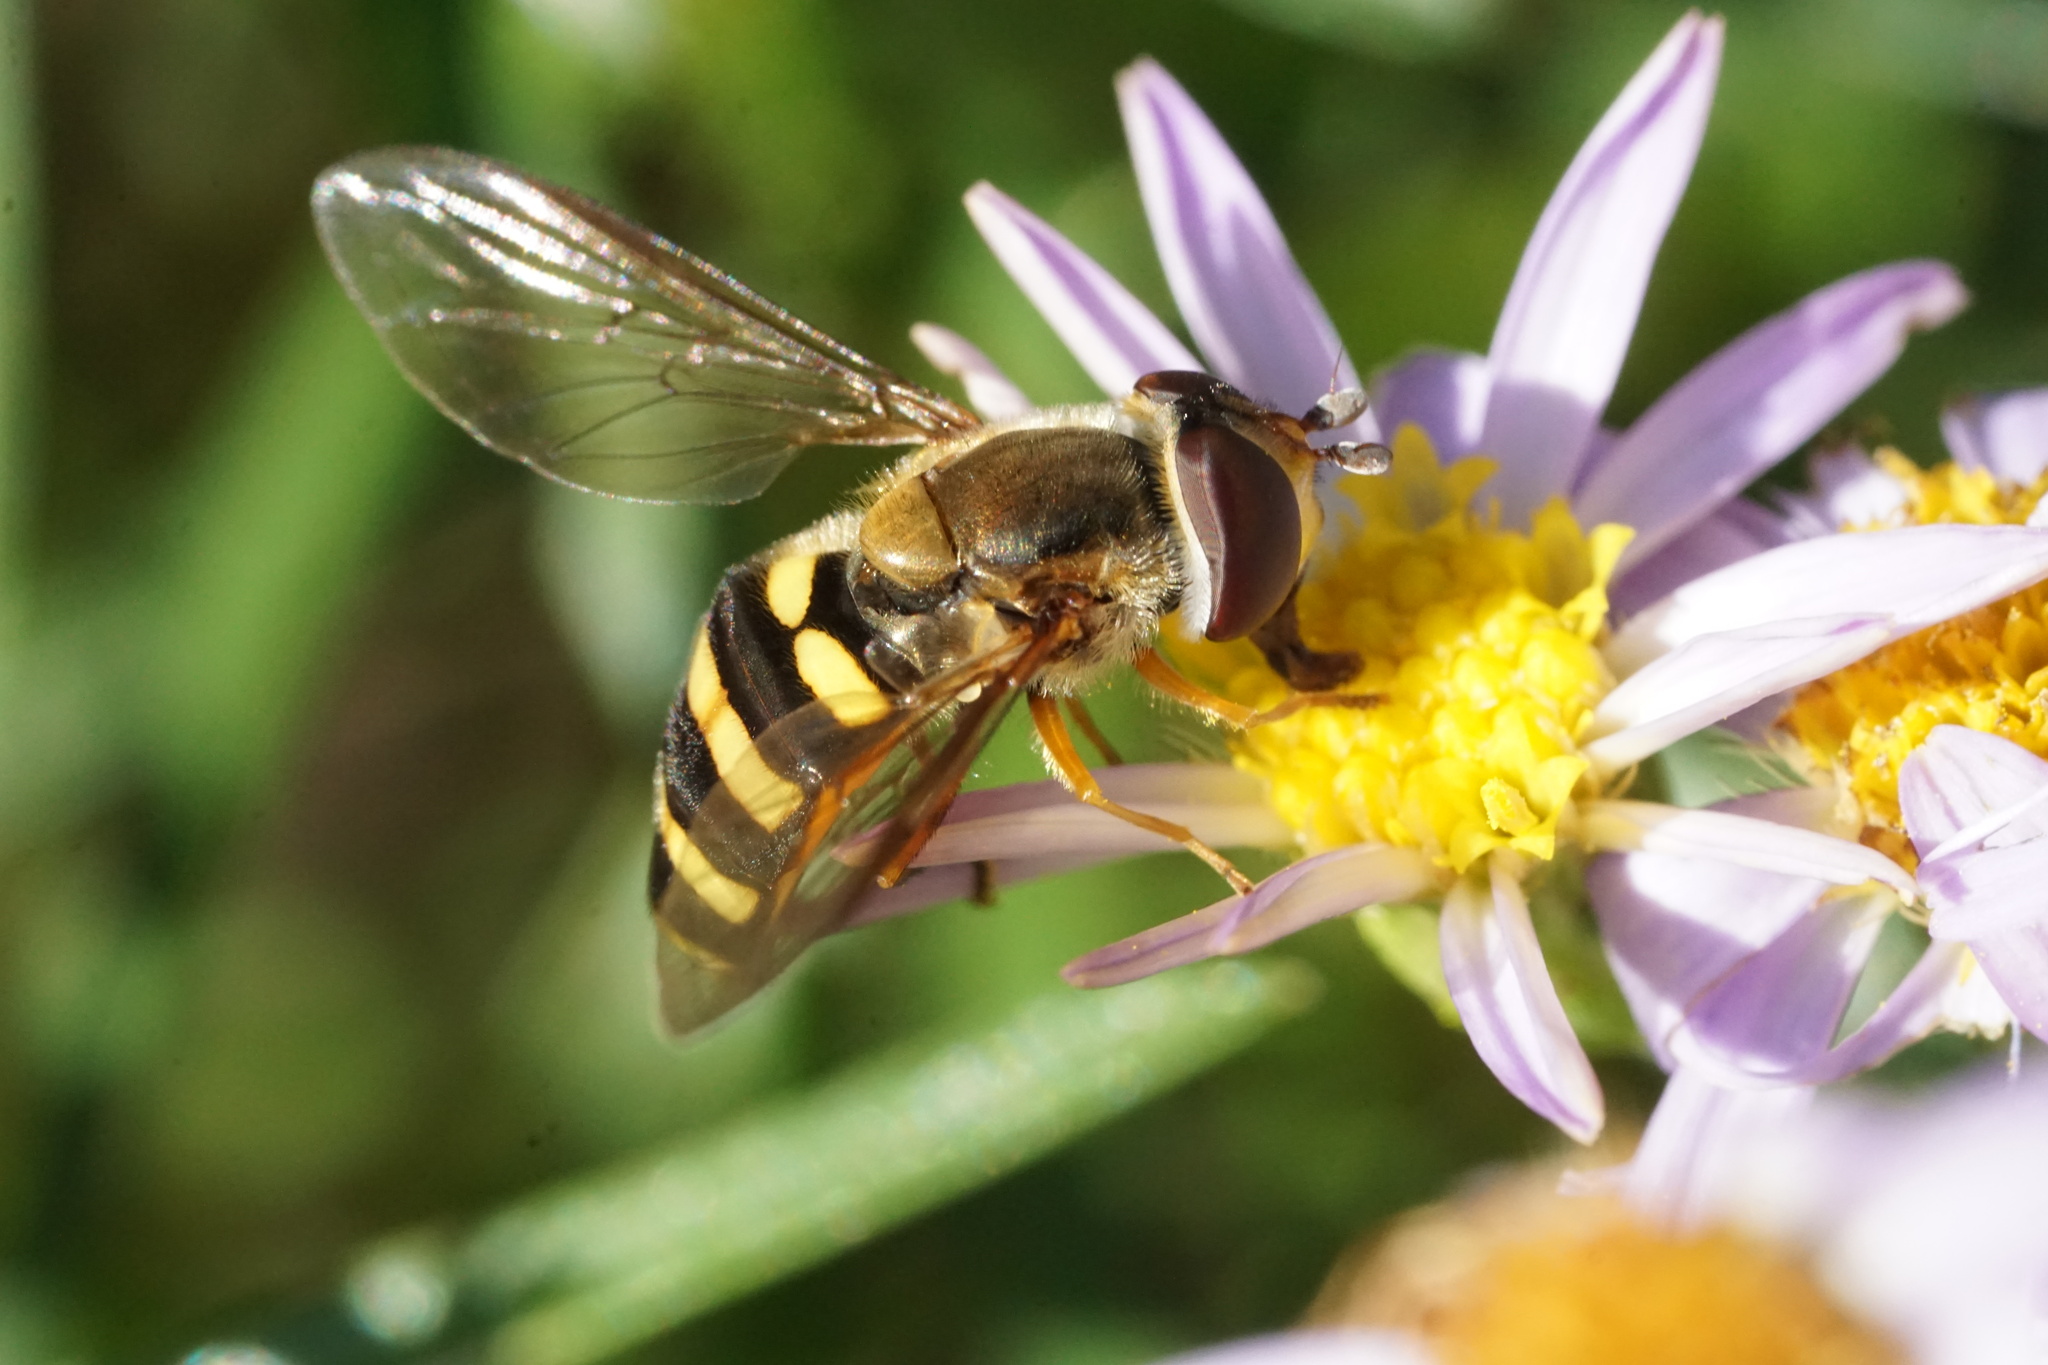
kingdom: Animalia
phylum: Arthropoda
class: Insecta
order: Diptera
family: Syrphidae
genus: Eupeodes
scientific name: Eupeodes
